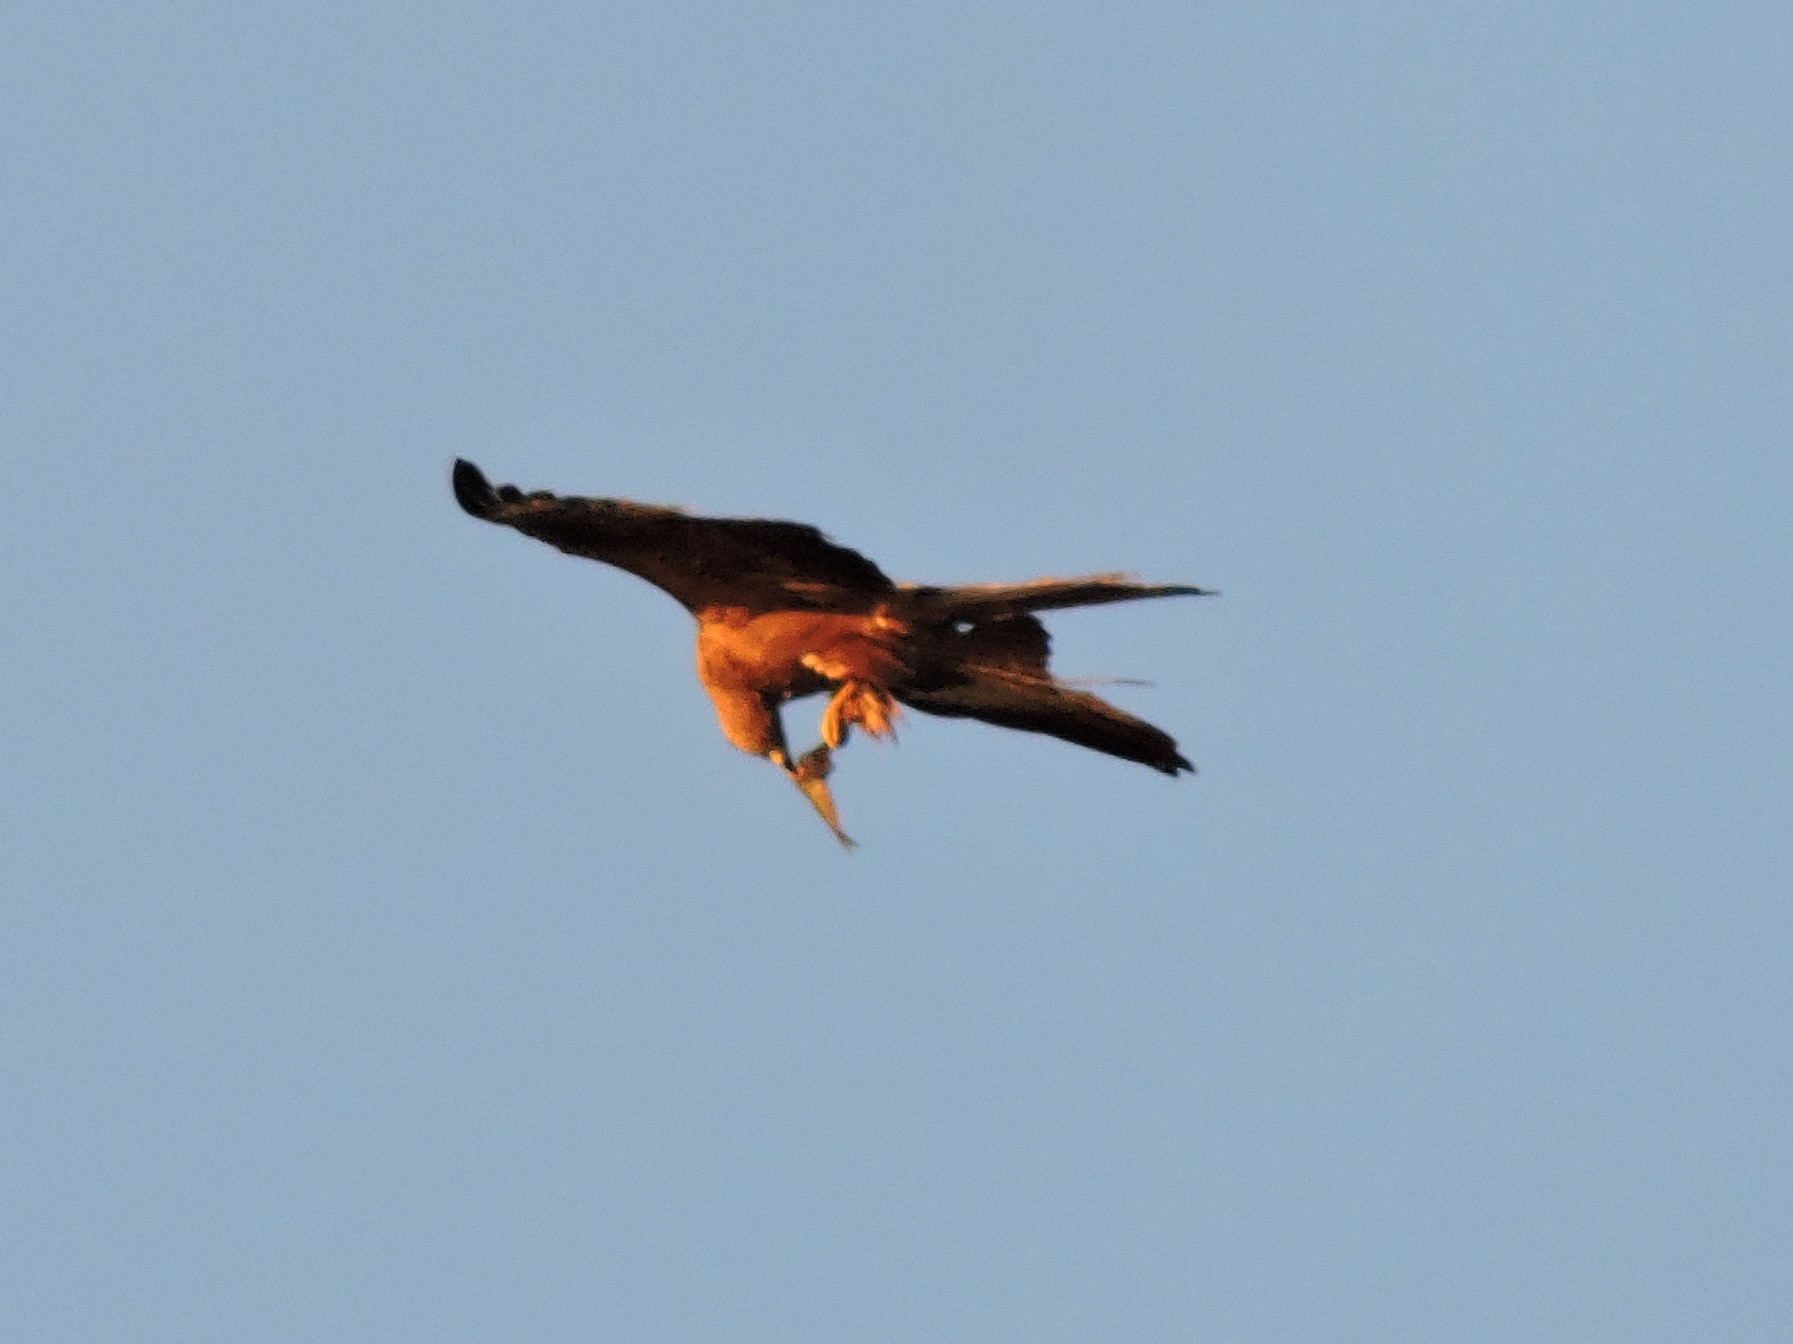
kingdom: Animalia
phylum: Chordata
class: Aves
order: Accipitriformes
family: Accipitridae
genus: Milvus
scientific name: Milvus migrans
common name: Black kite
